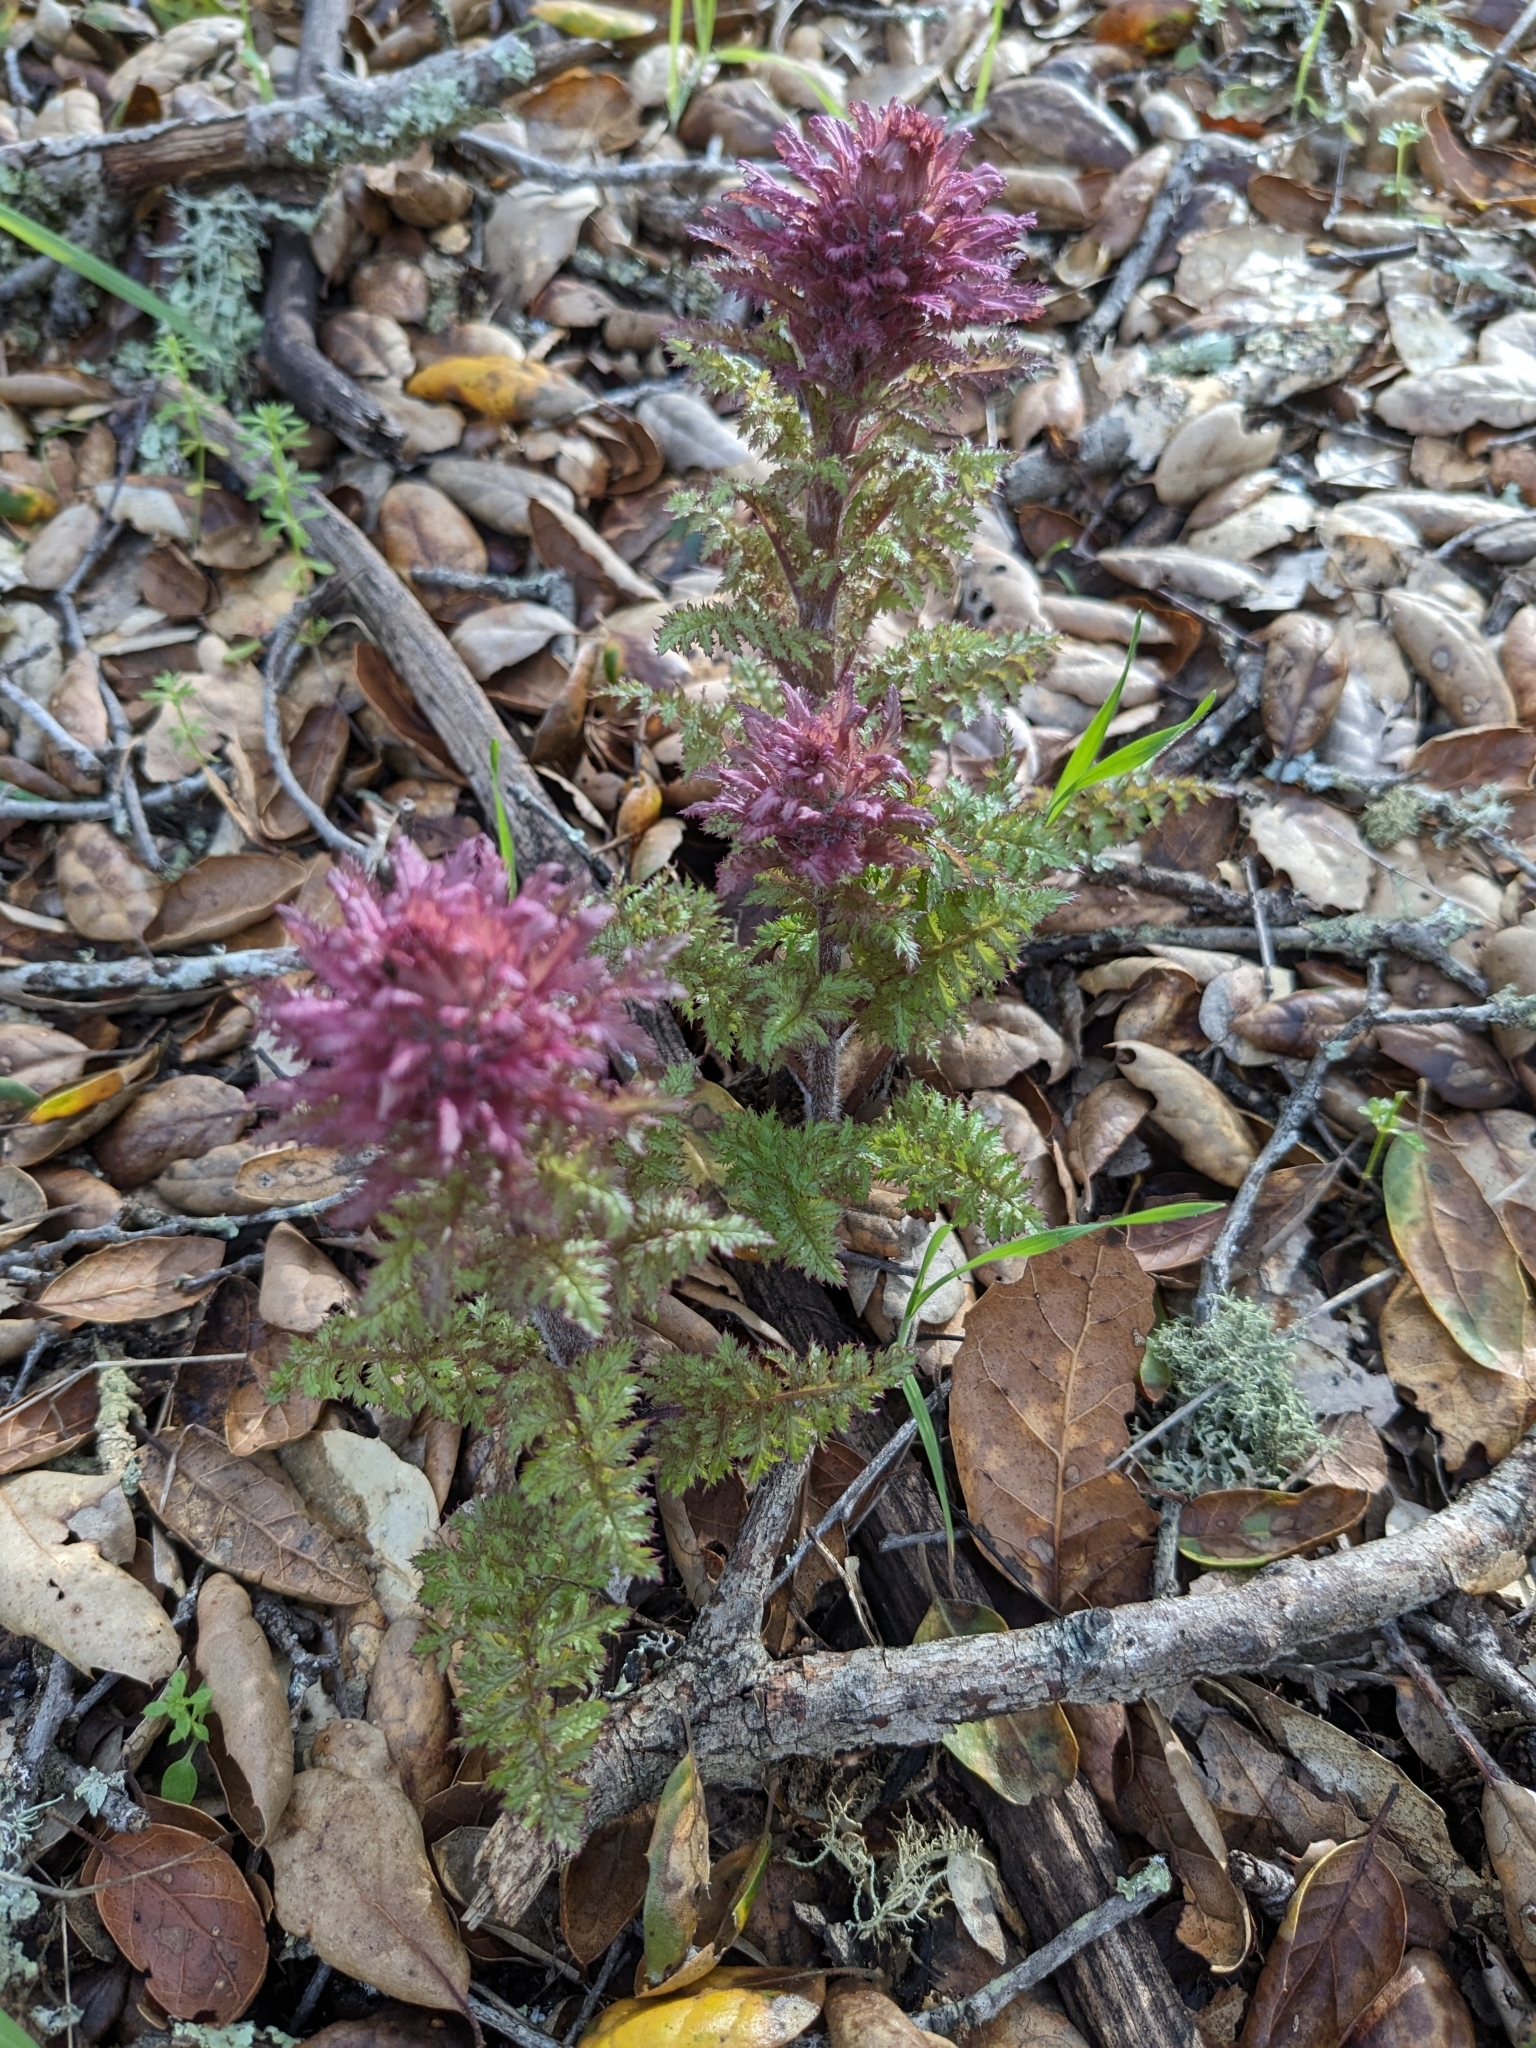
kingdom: Plantae
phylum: Tracheophyta
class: Magnoliopsida
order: Lamiales
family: Orobanchaceae
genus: Pedicularis
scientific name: Pedicularis densiflora
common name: Indian warrior
